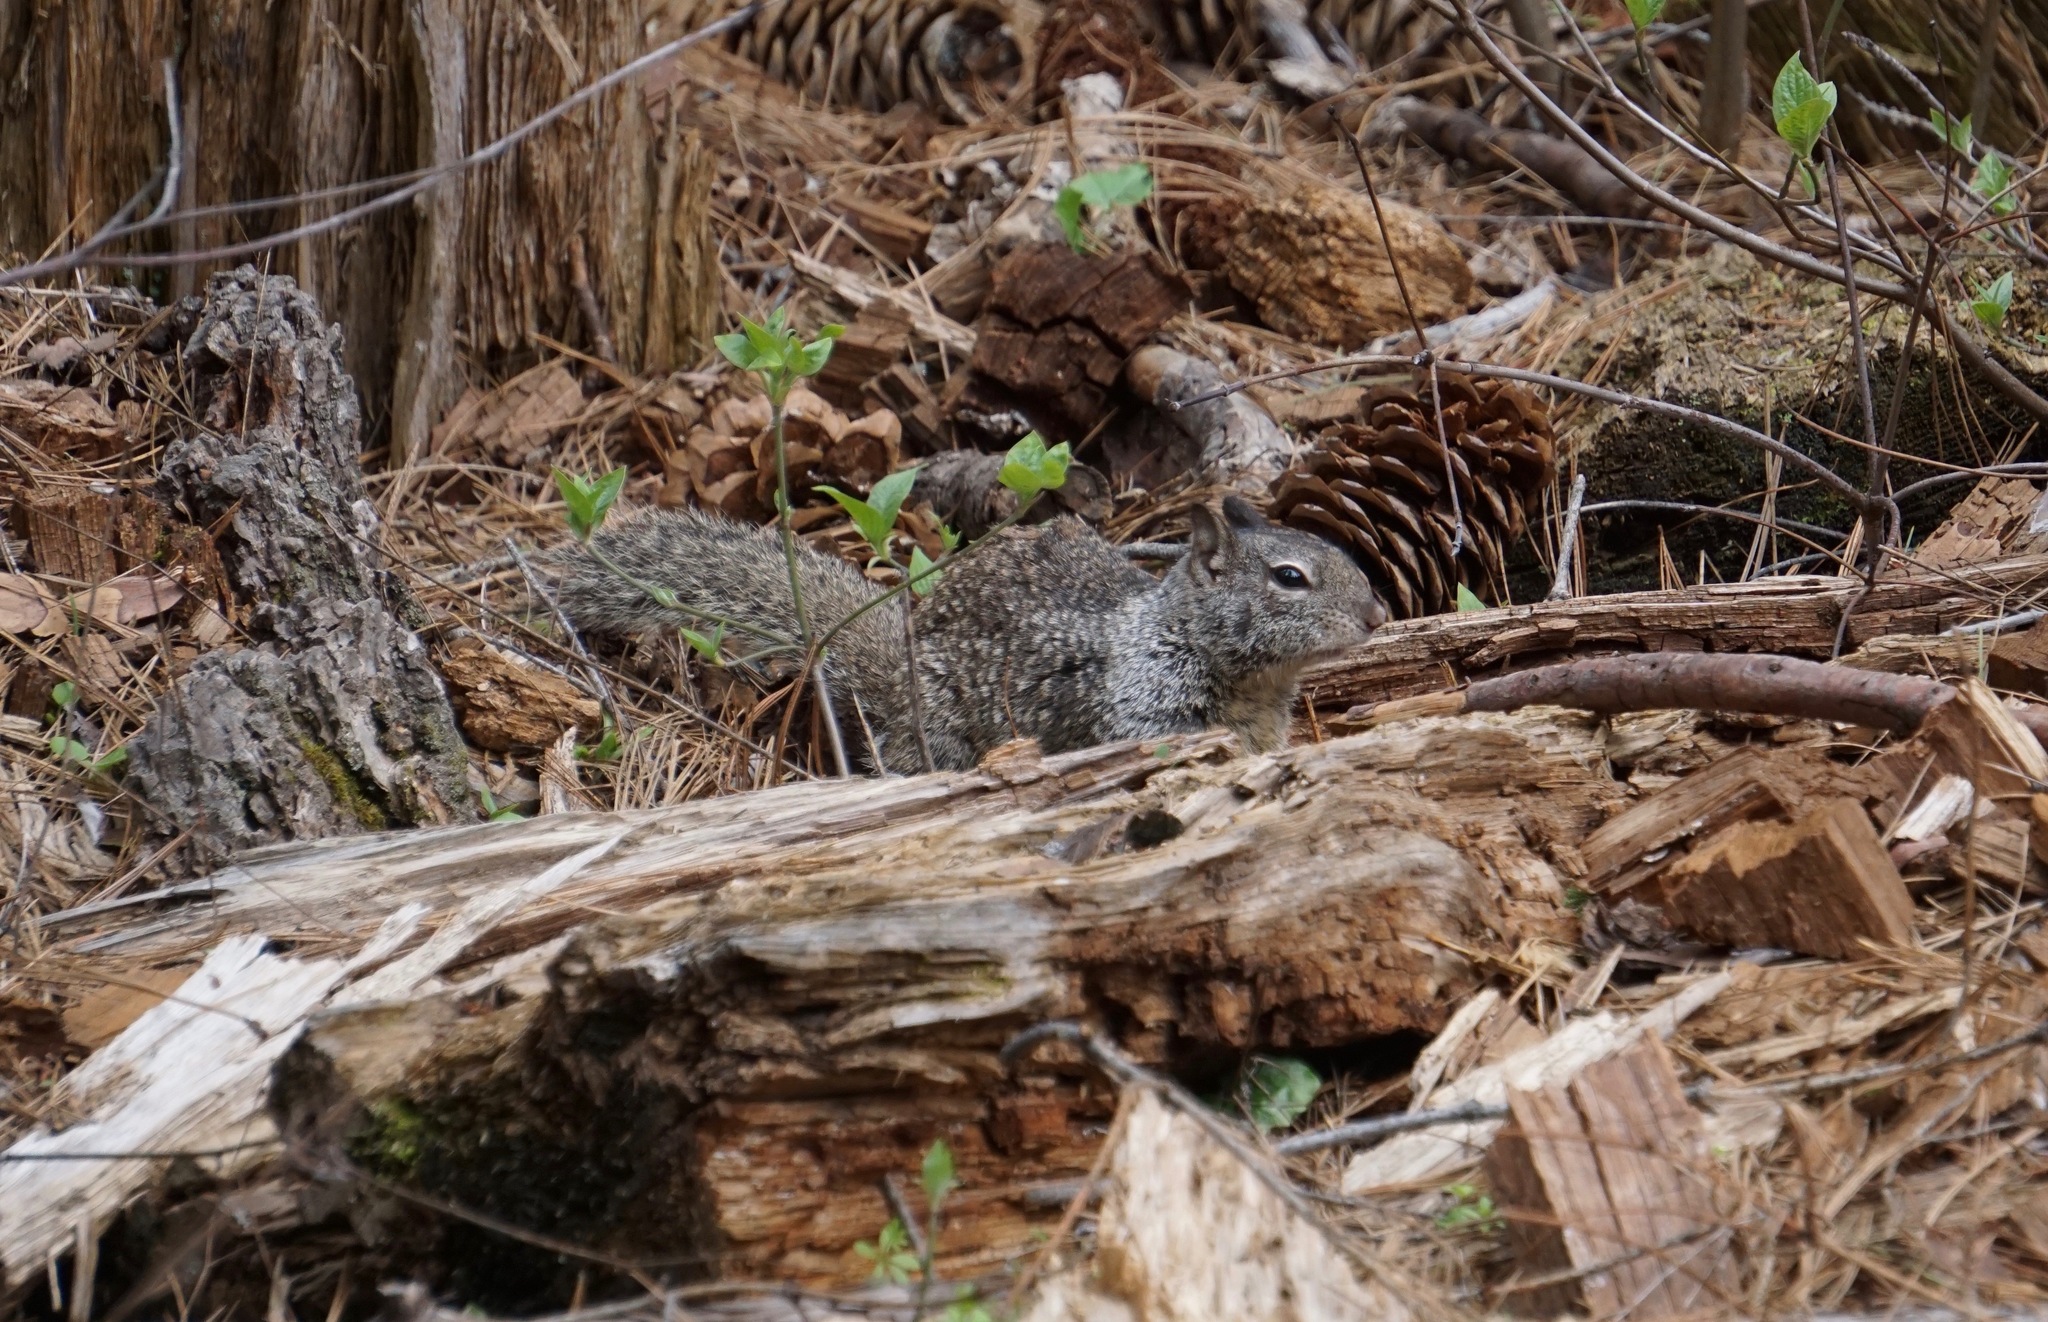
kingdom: Animalia
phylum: Chordata
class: Mammalia
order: Rodentia
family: Sciuridae
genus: Otospermophilus
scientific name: Otospermophilus beecheyi
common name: California ground squirrel
